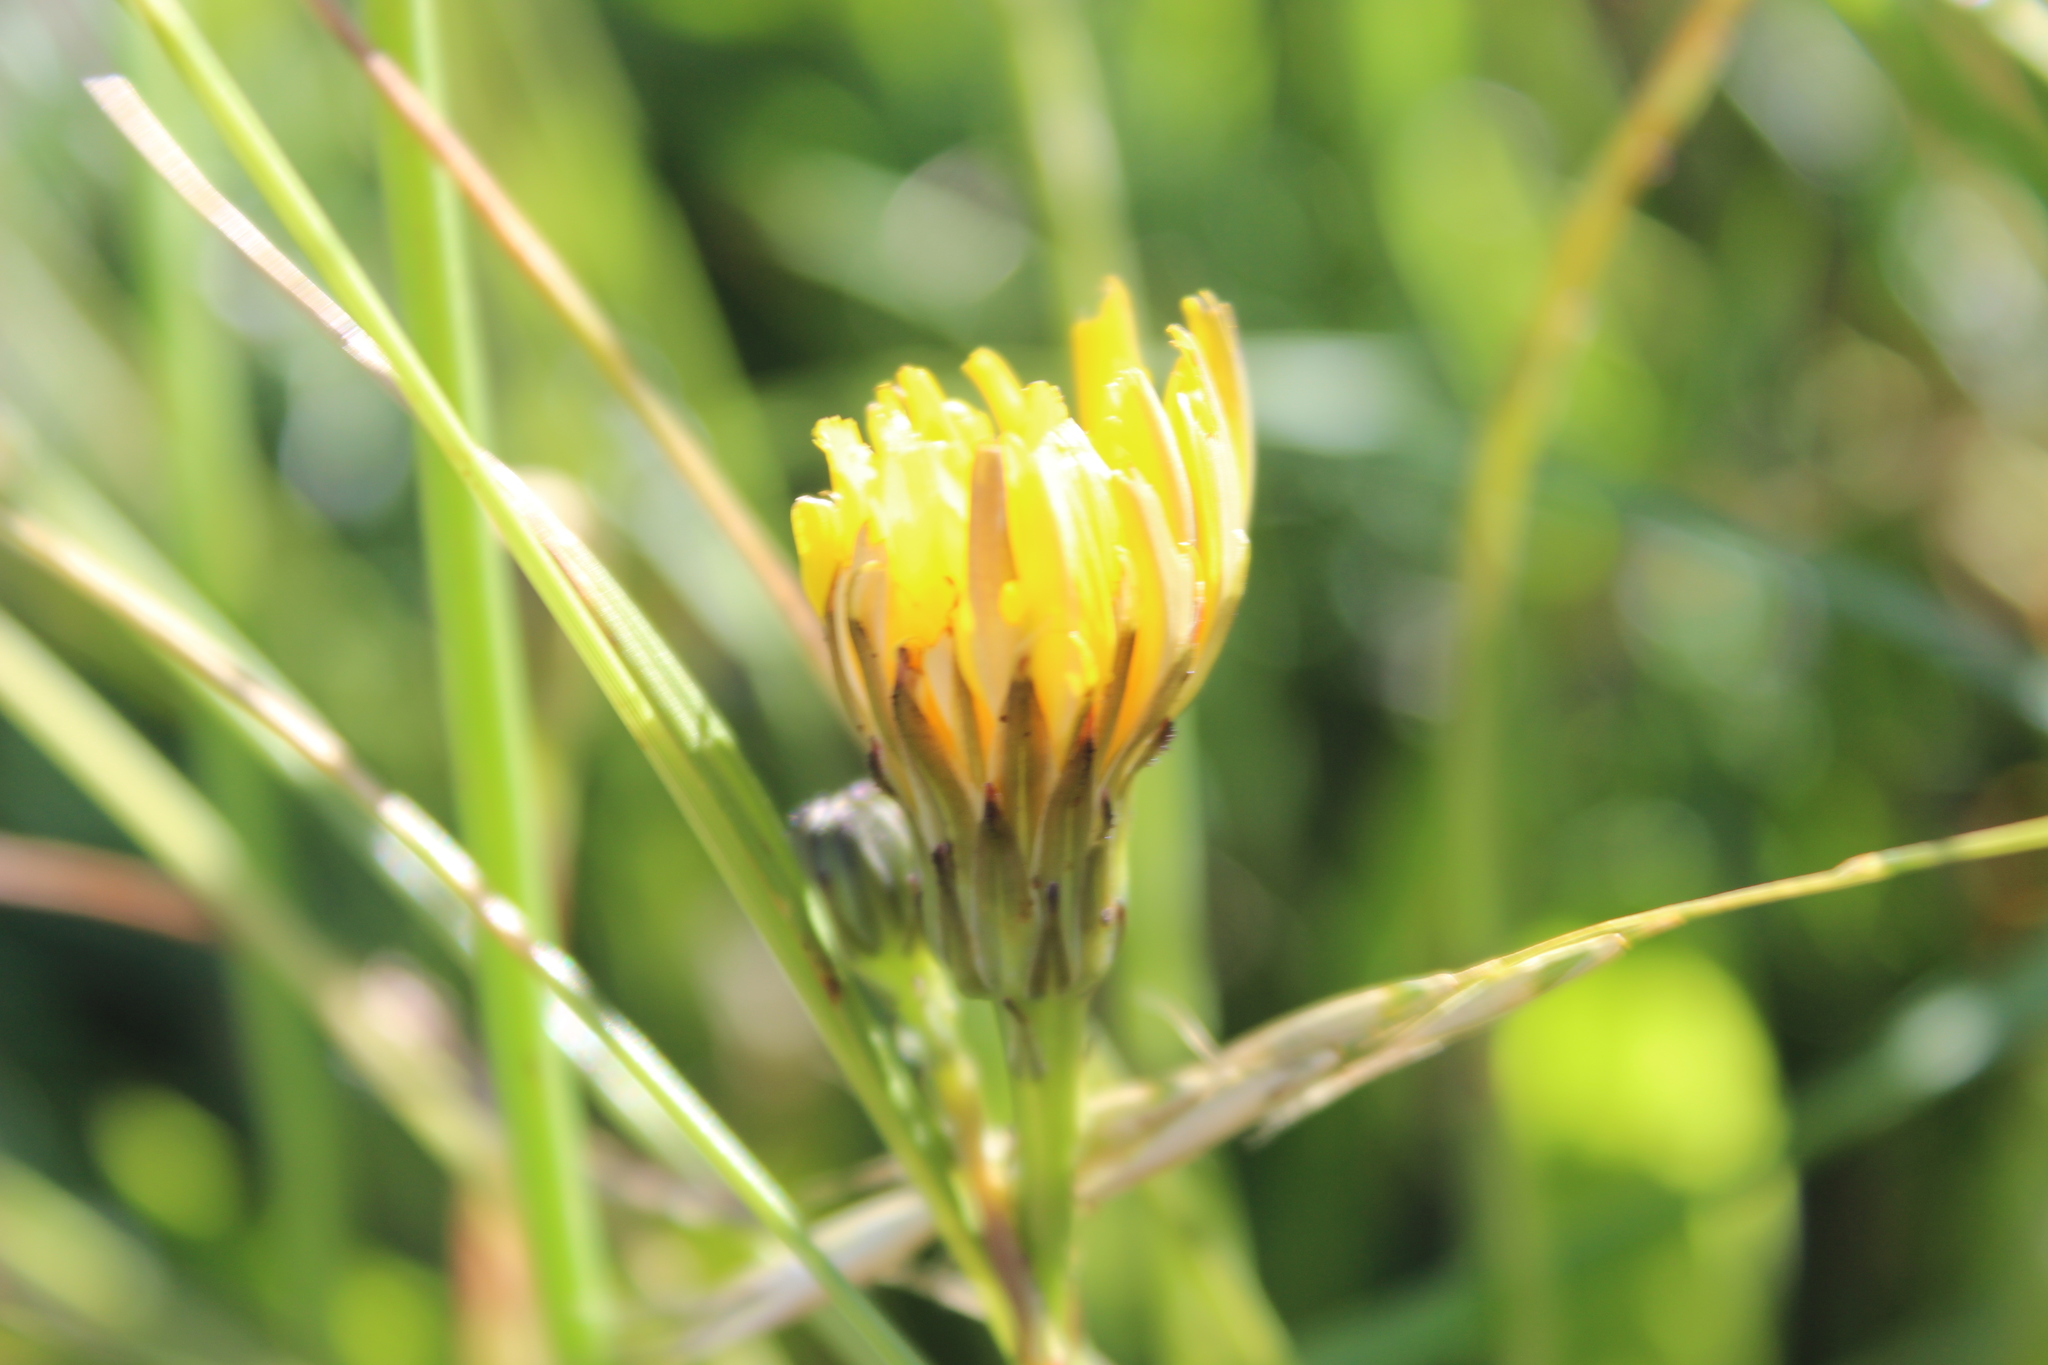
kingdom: Animalia
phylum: Arthropoda
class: Insecta
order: Hymenoptera
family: Cynipidae
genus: Phanacis
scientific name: Phanacis hypochoeridis
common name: Gall wasp
